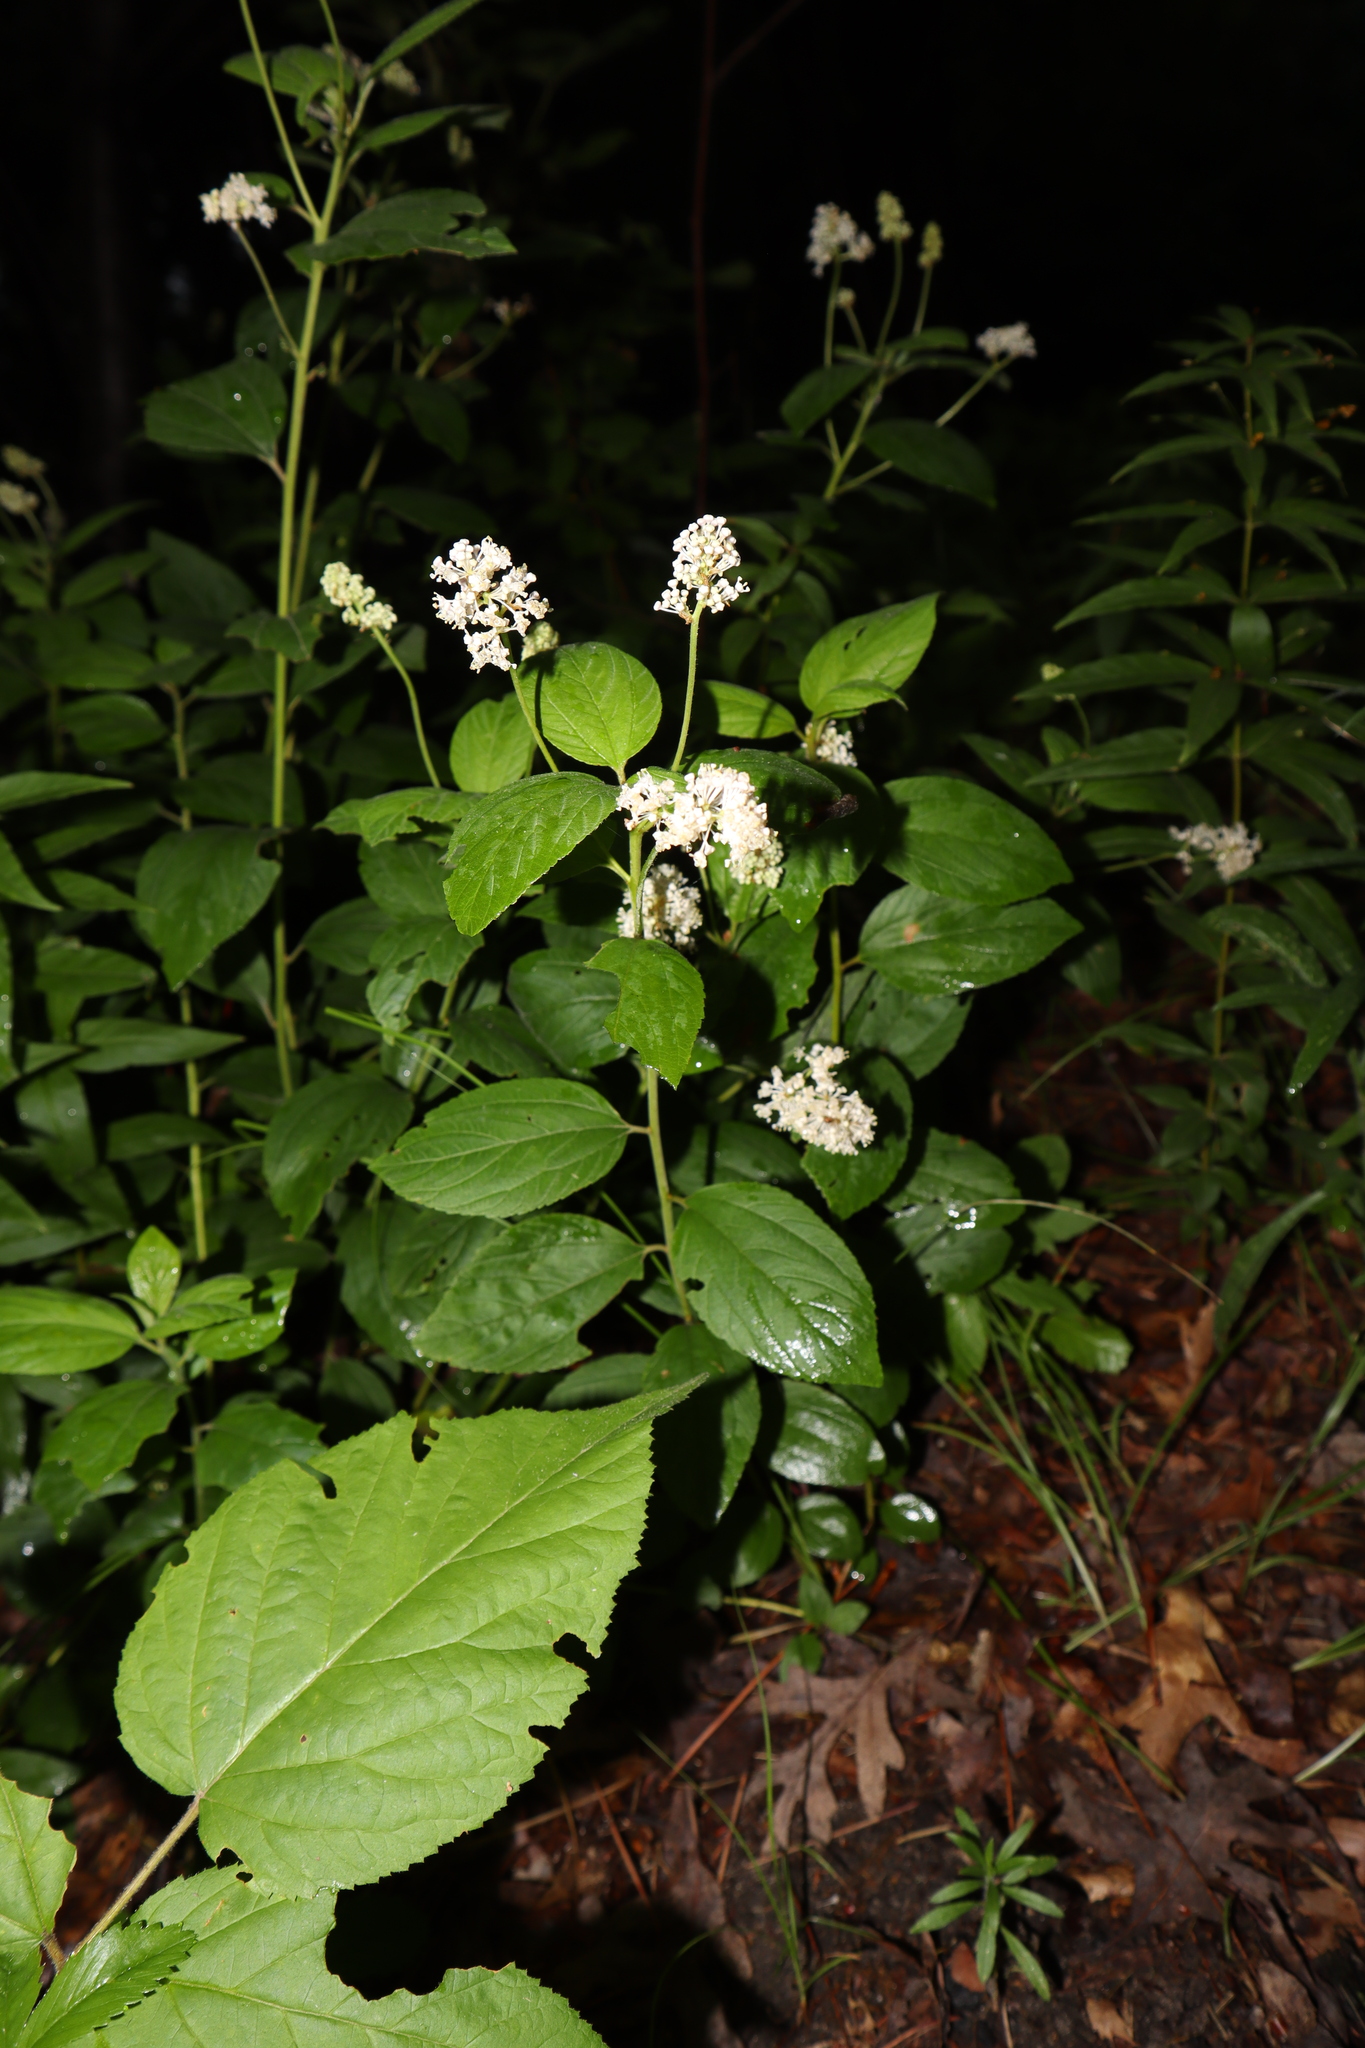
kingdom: Plantae
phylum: Tracheophyta
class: Magnoliopsida
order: Rosales
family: Rhamnaceae
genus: Ceanothus
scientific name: Ceanothus americanus
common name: Redroot
